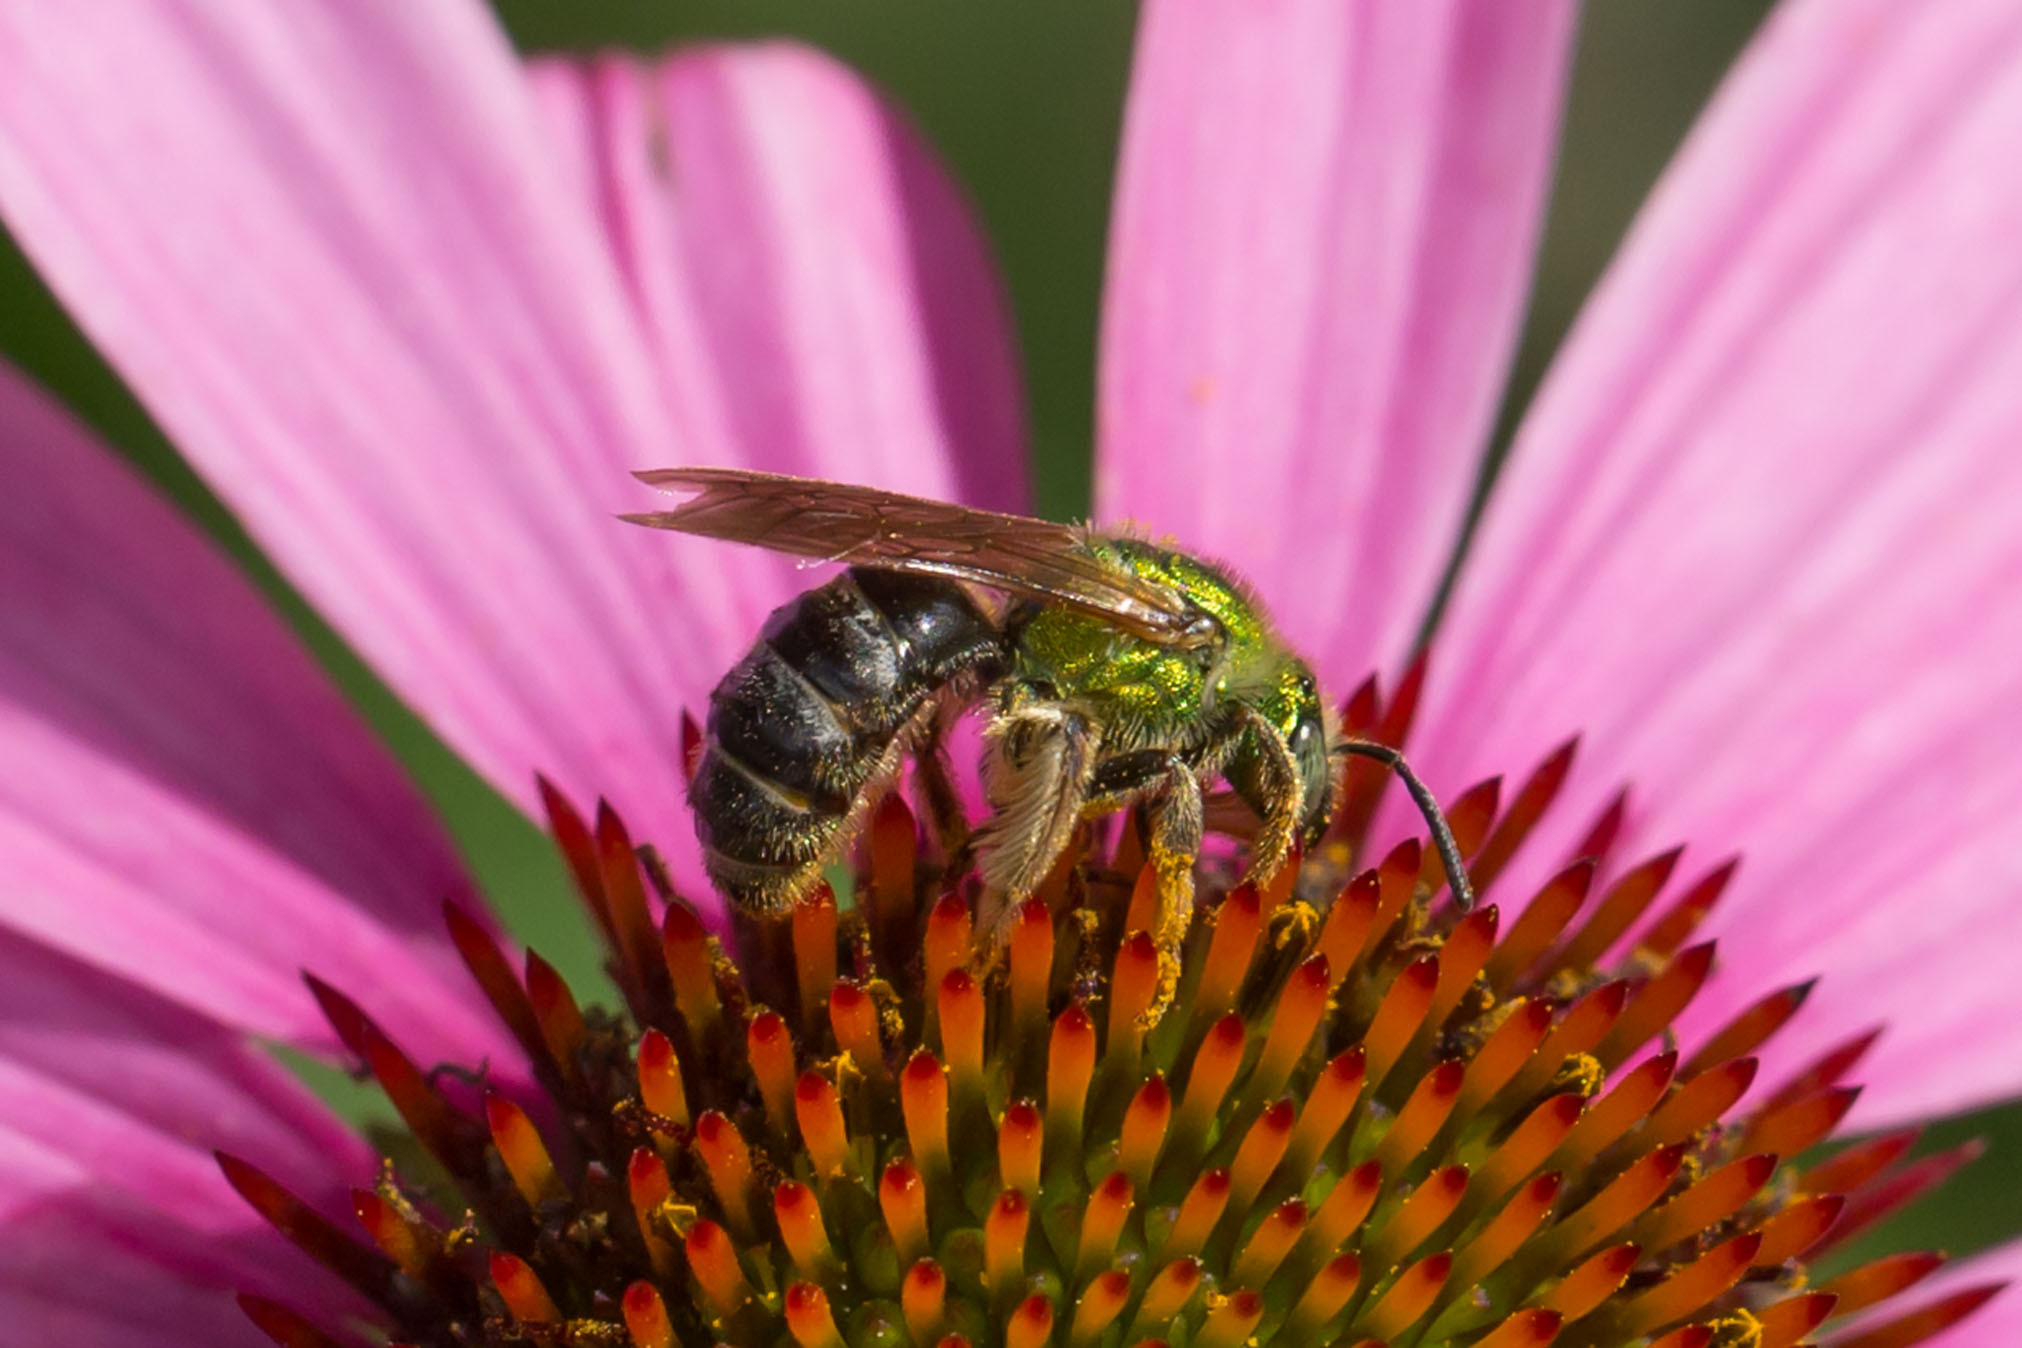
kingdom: Animalia
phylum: Arthropoda
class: Insecta
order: Hymenoptera
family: Halictidae
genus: Agapostemon
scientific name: Agapostemon virescens
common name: Bicolored striped sweat bee
